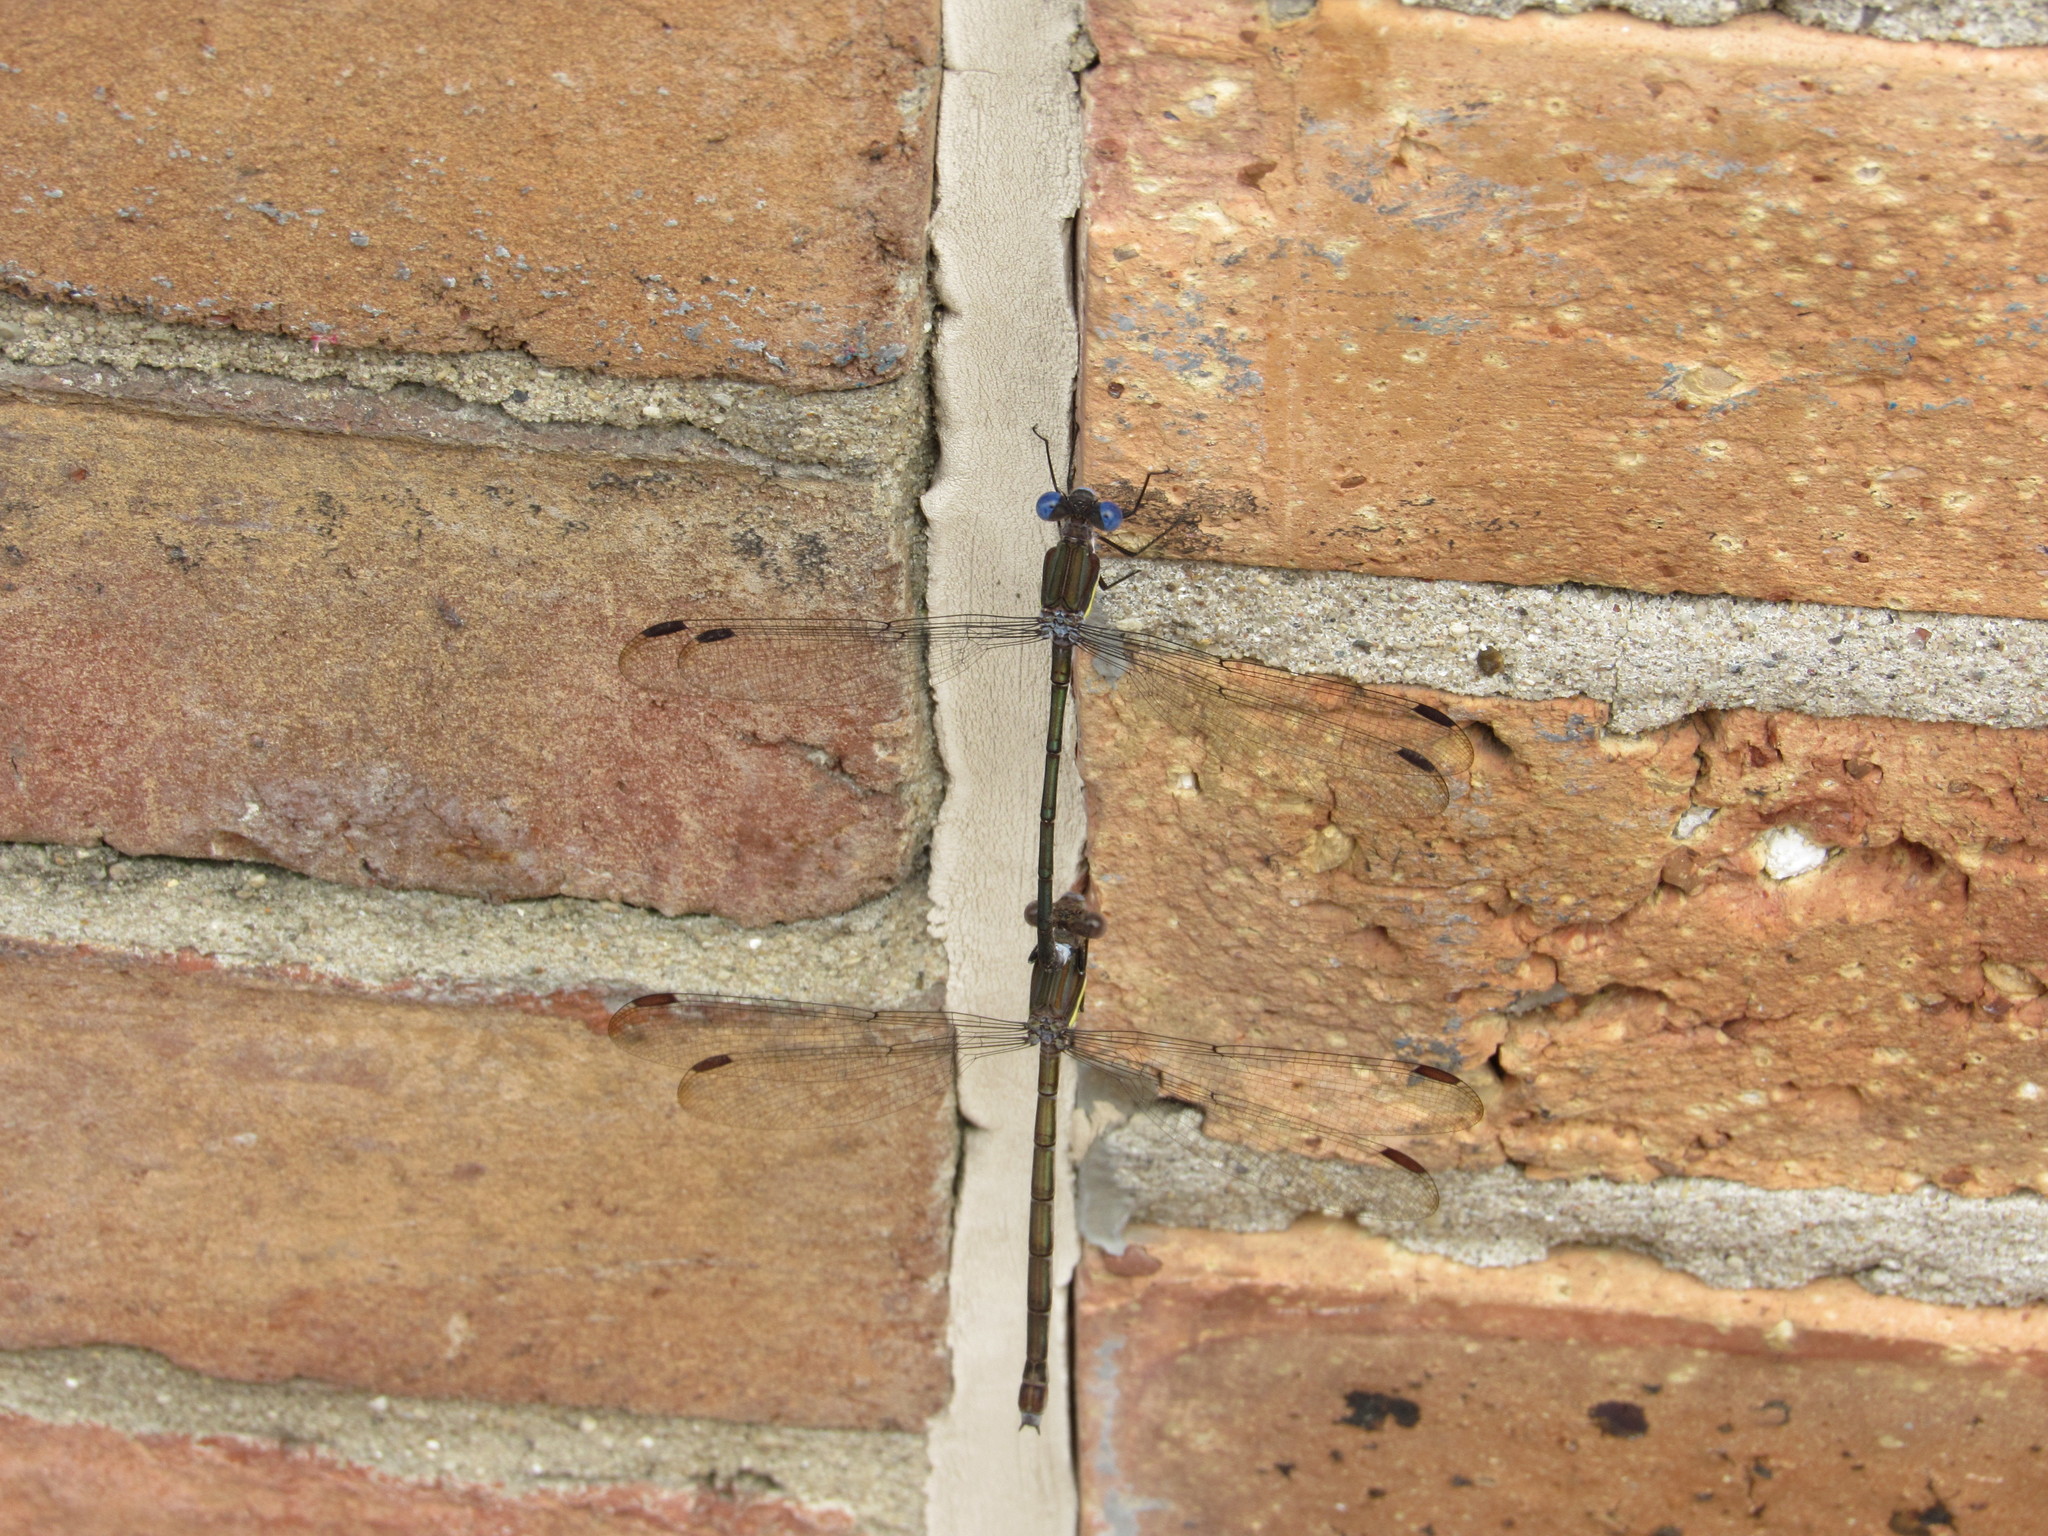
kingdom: Animalia
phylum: Arthropoda
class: Insecta
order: Odonata
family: Lestidae
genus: Archilestes
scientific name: Archilestes grandis
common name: Great spreadwing
